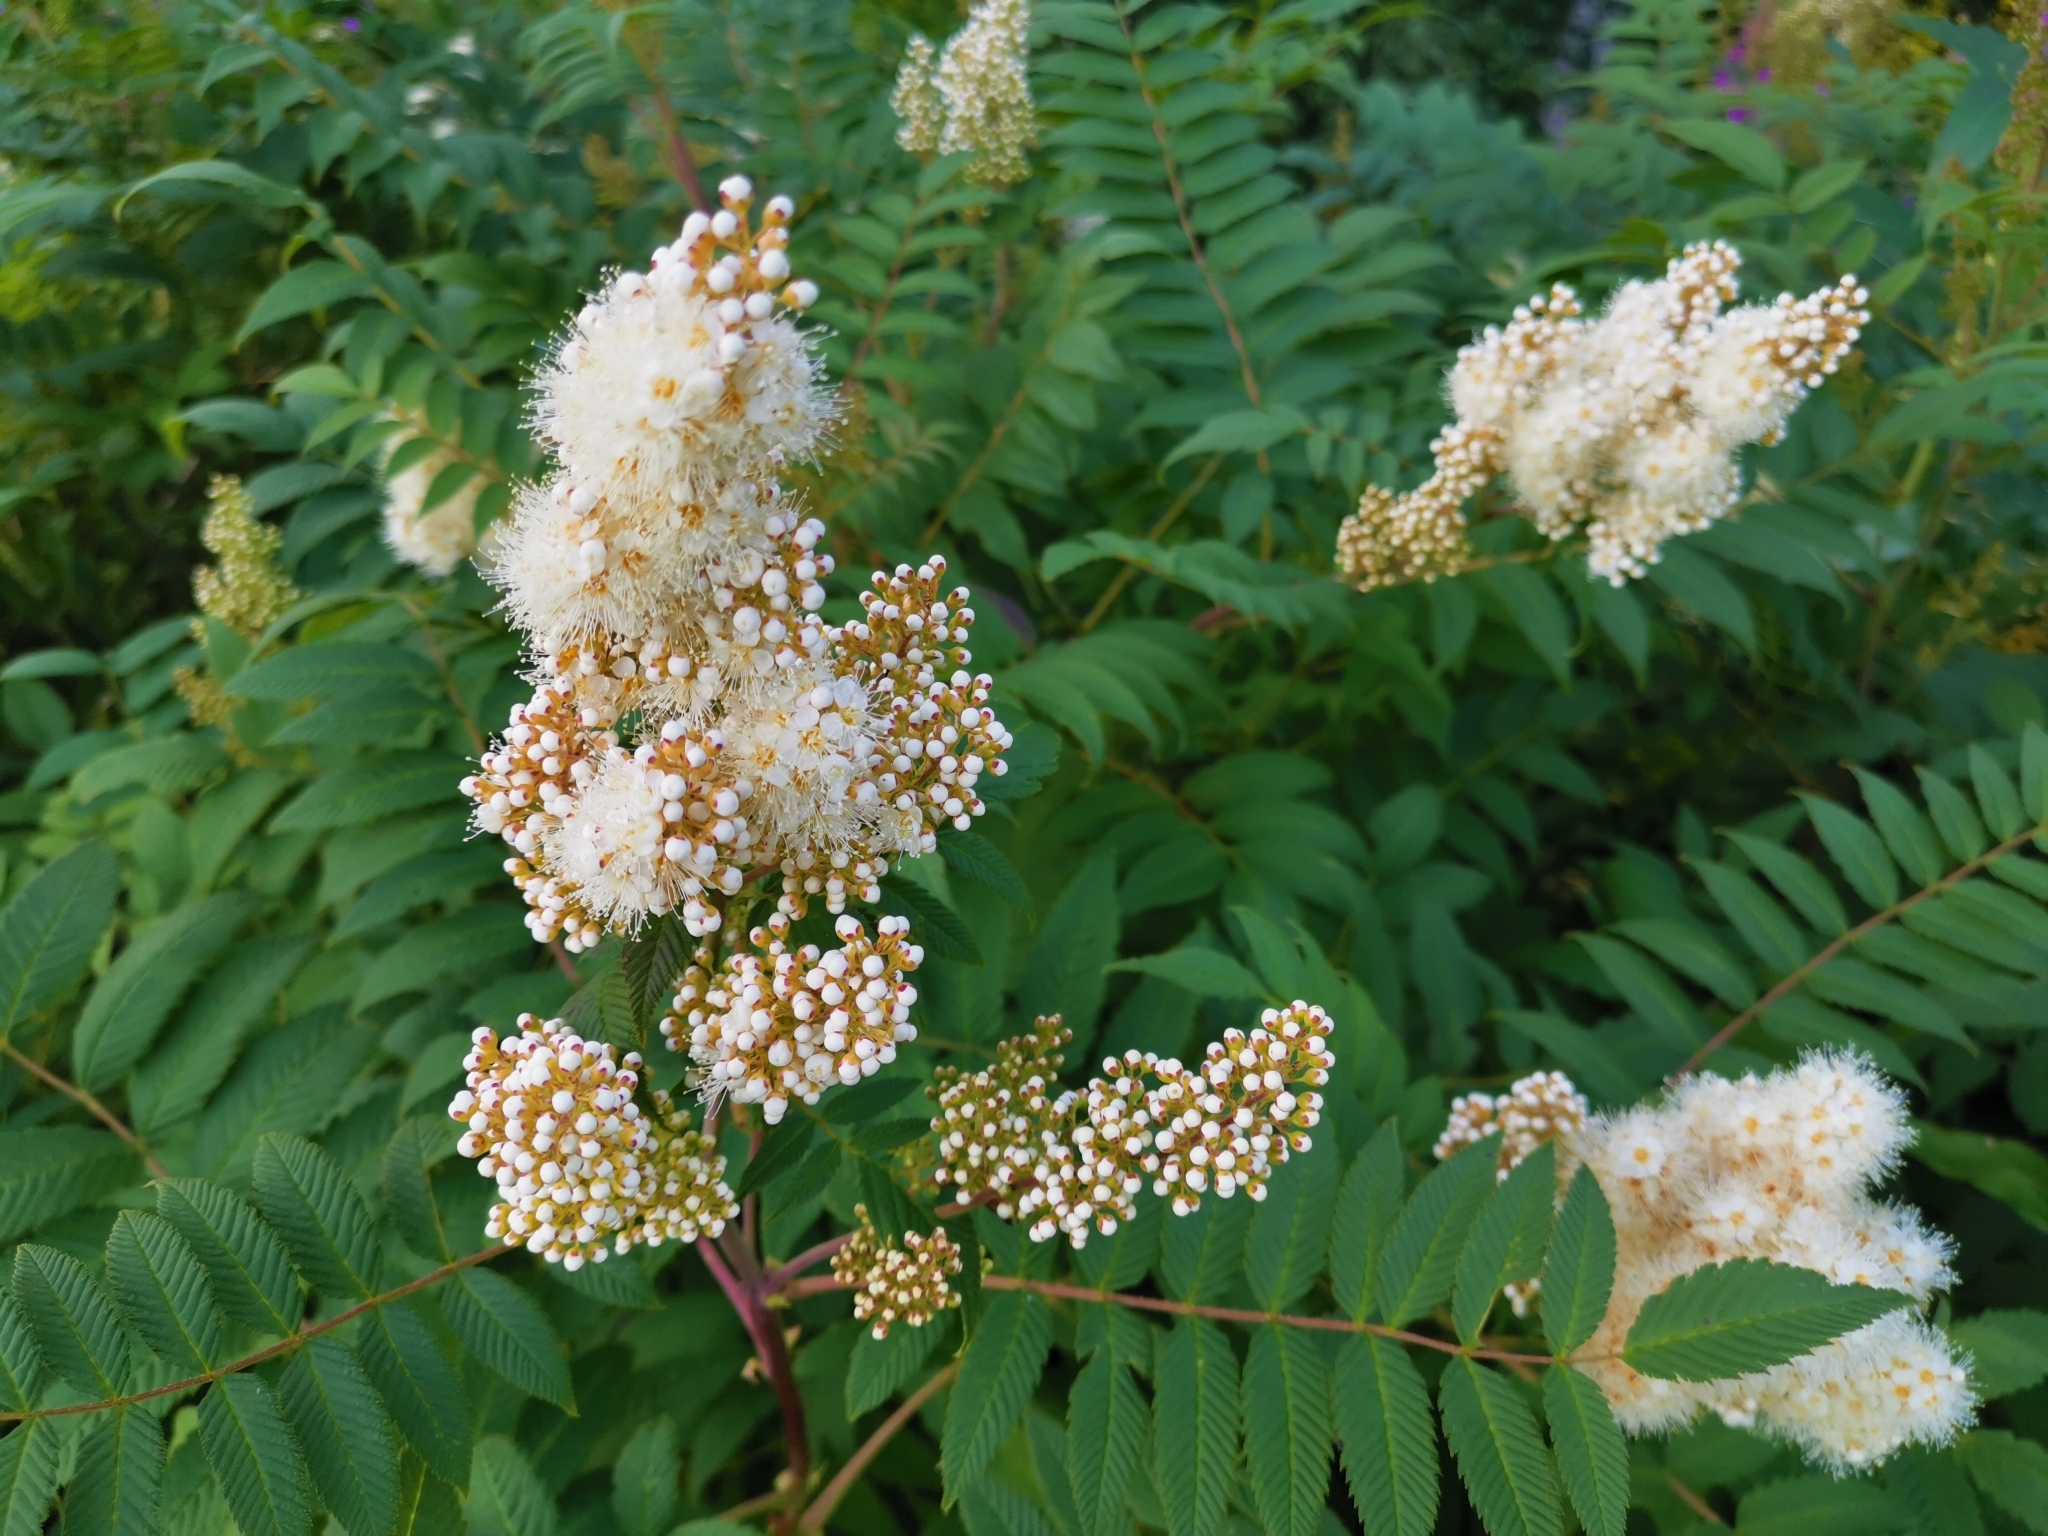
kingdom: Plantae
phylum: Tracheophyta
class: Magnoliopsida
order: Rosales
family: Rosaceae
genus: Sorbaria
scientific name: Sorbaria sorbifolia
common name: False spiraea
